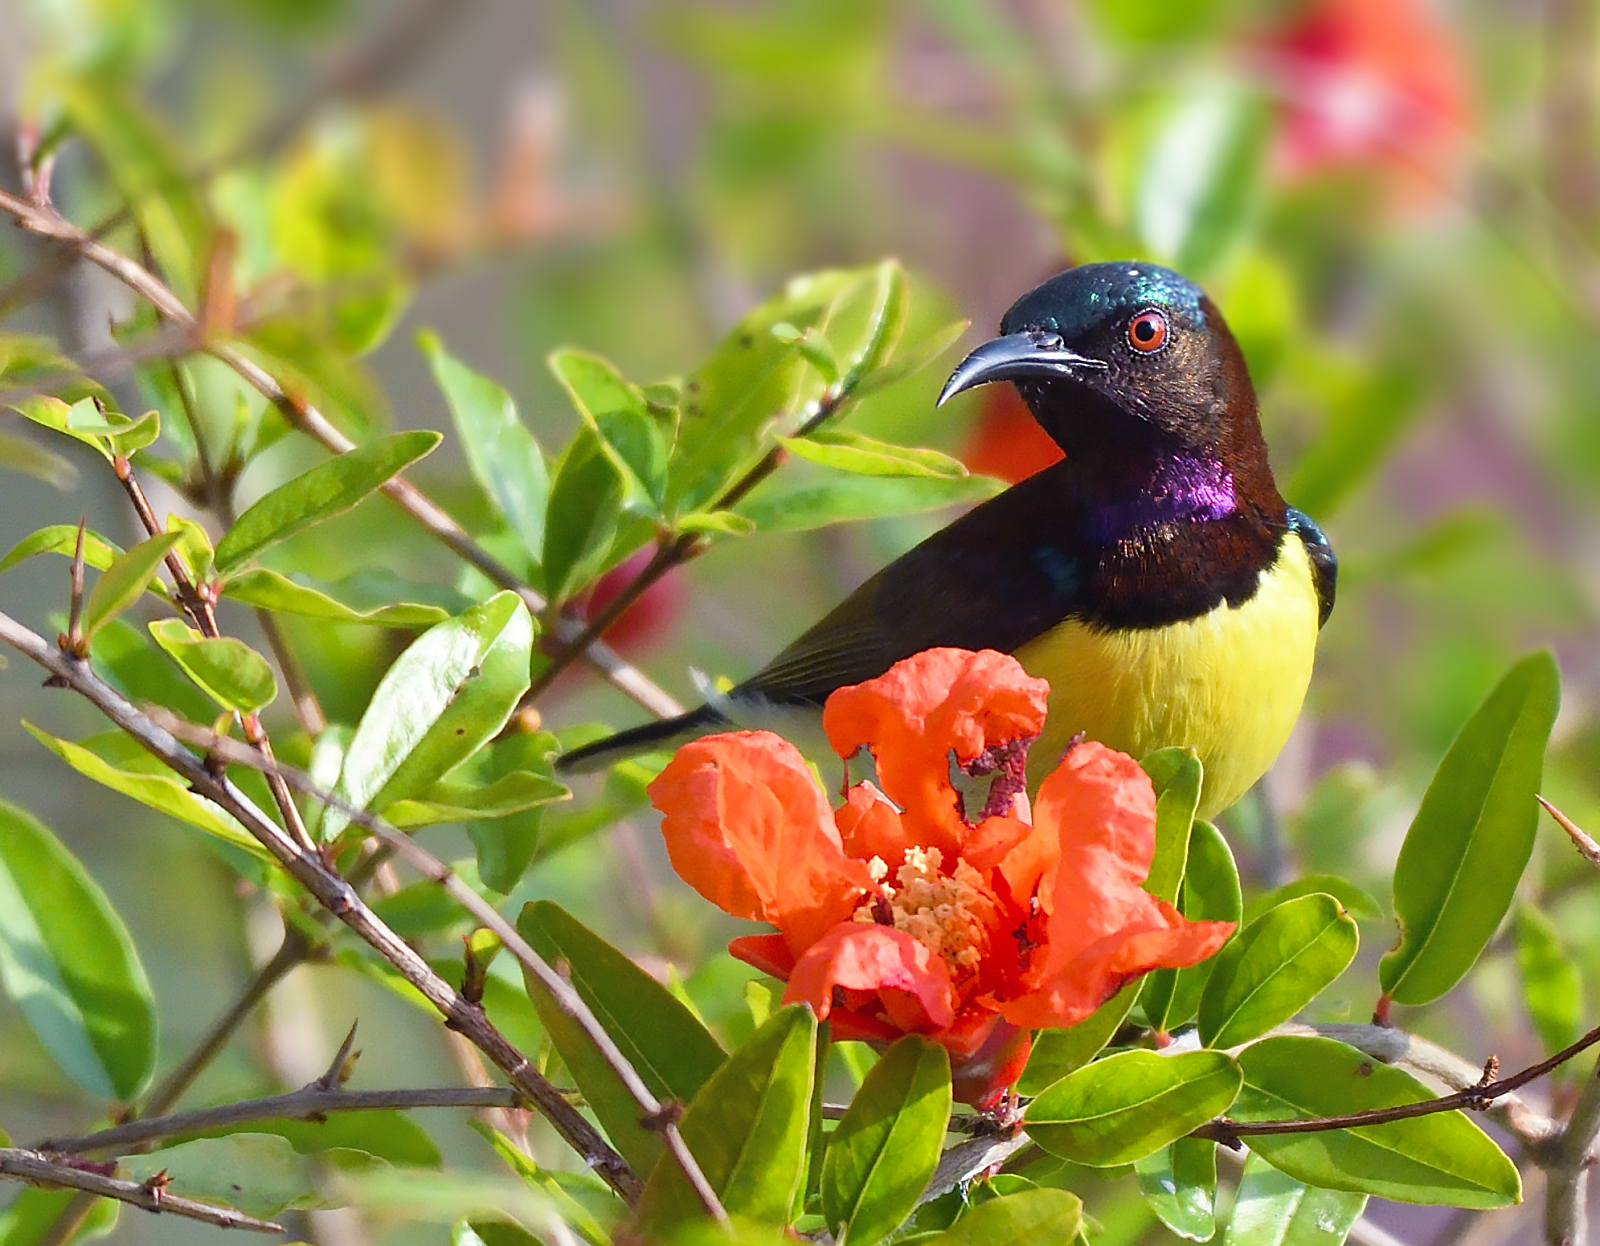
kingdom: Animalia
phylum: Chordata
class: Aves
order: Passeriformes
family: Nectariniidae
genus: Leptocoma
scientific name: Leptocoma zeylonica
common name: Purple-rumped sunbird
